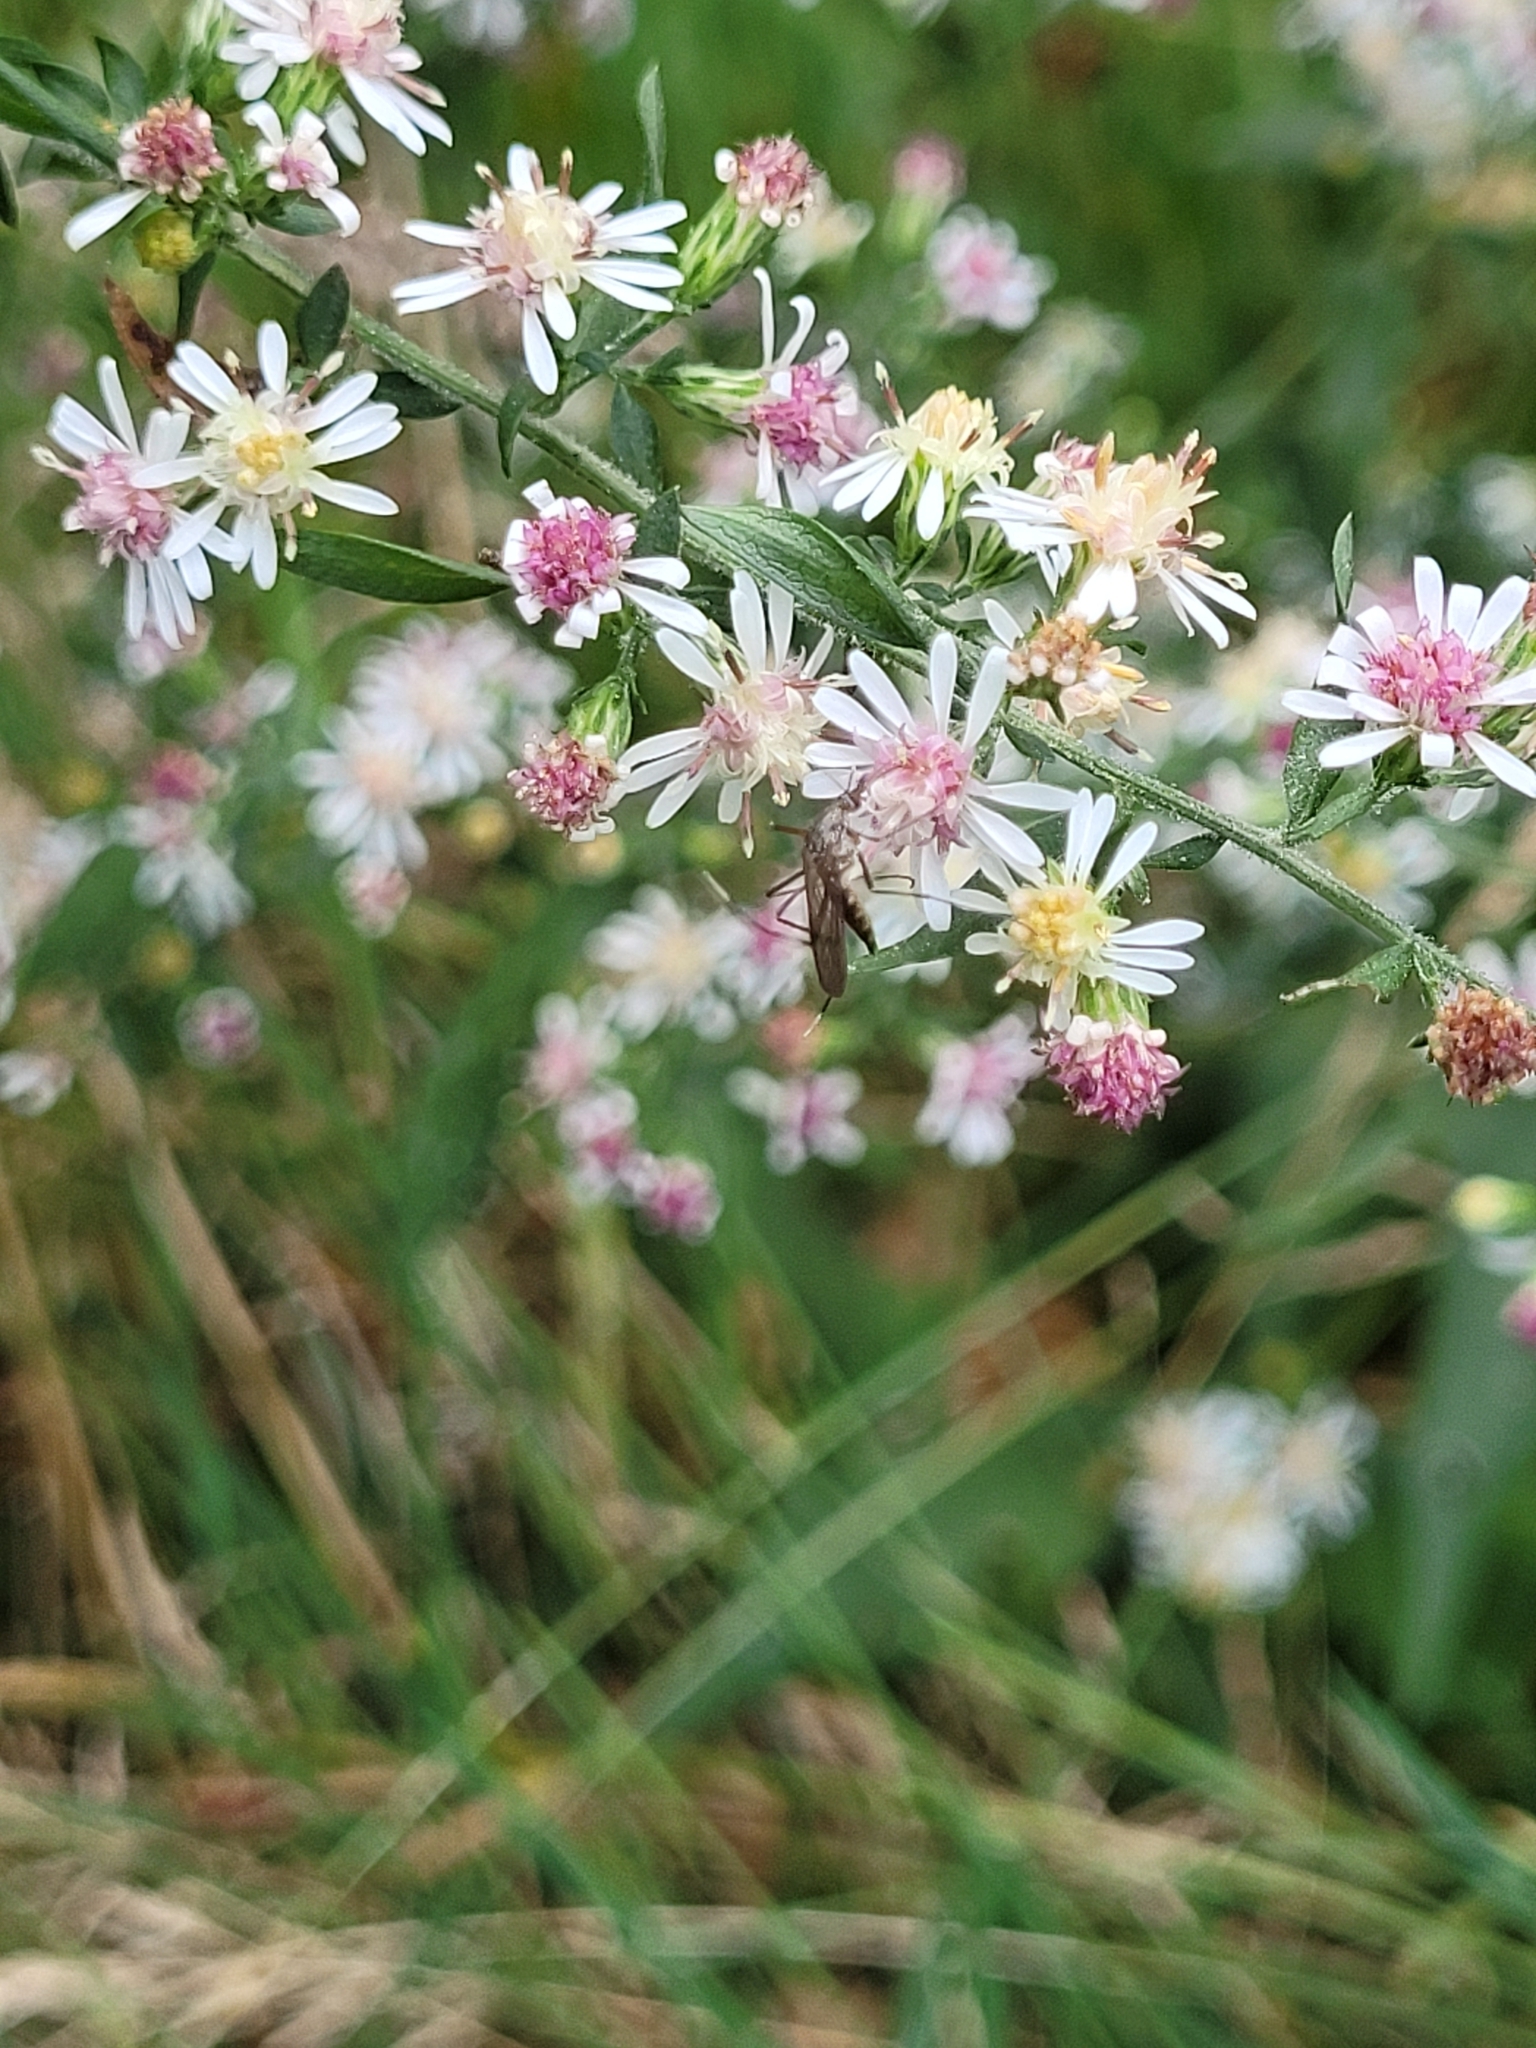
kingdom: Animalia
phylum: Arthropoda
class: Insecta
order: Diptera
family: Culicidae
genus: Psorophora
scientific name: Psorophora ferox
